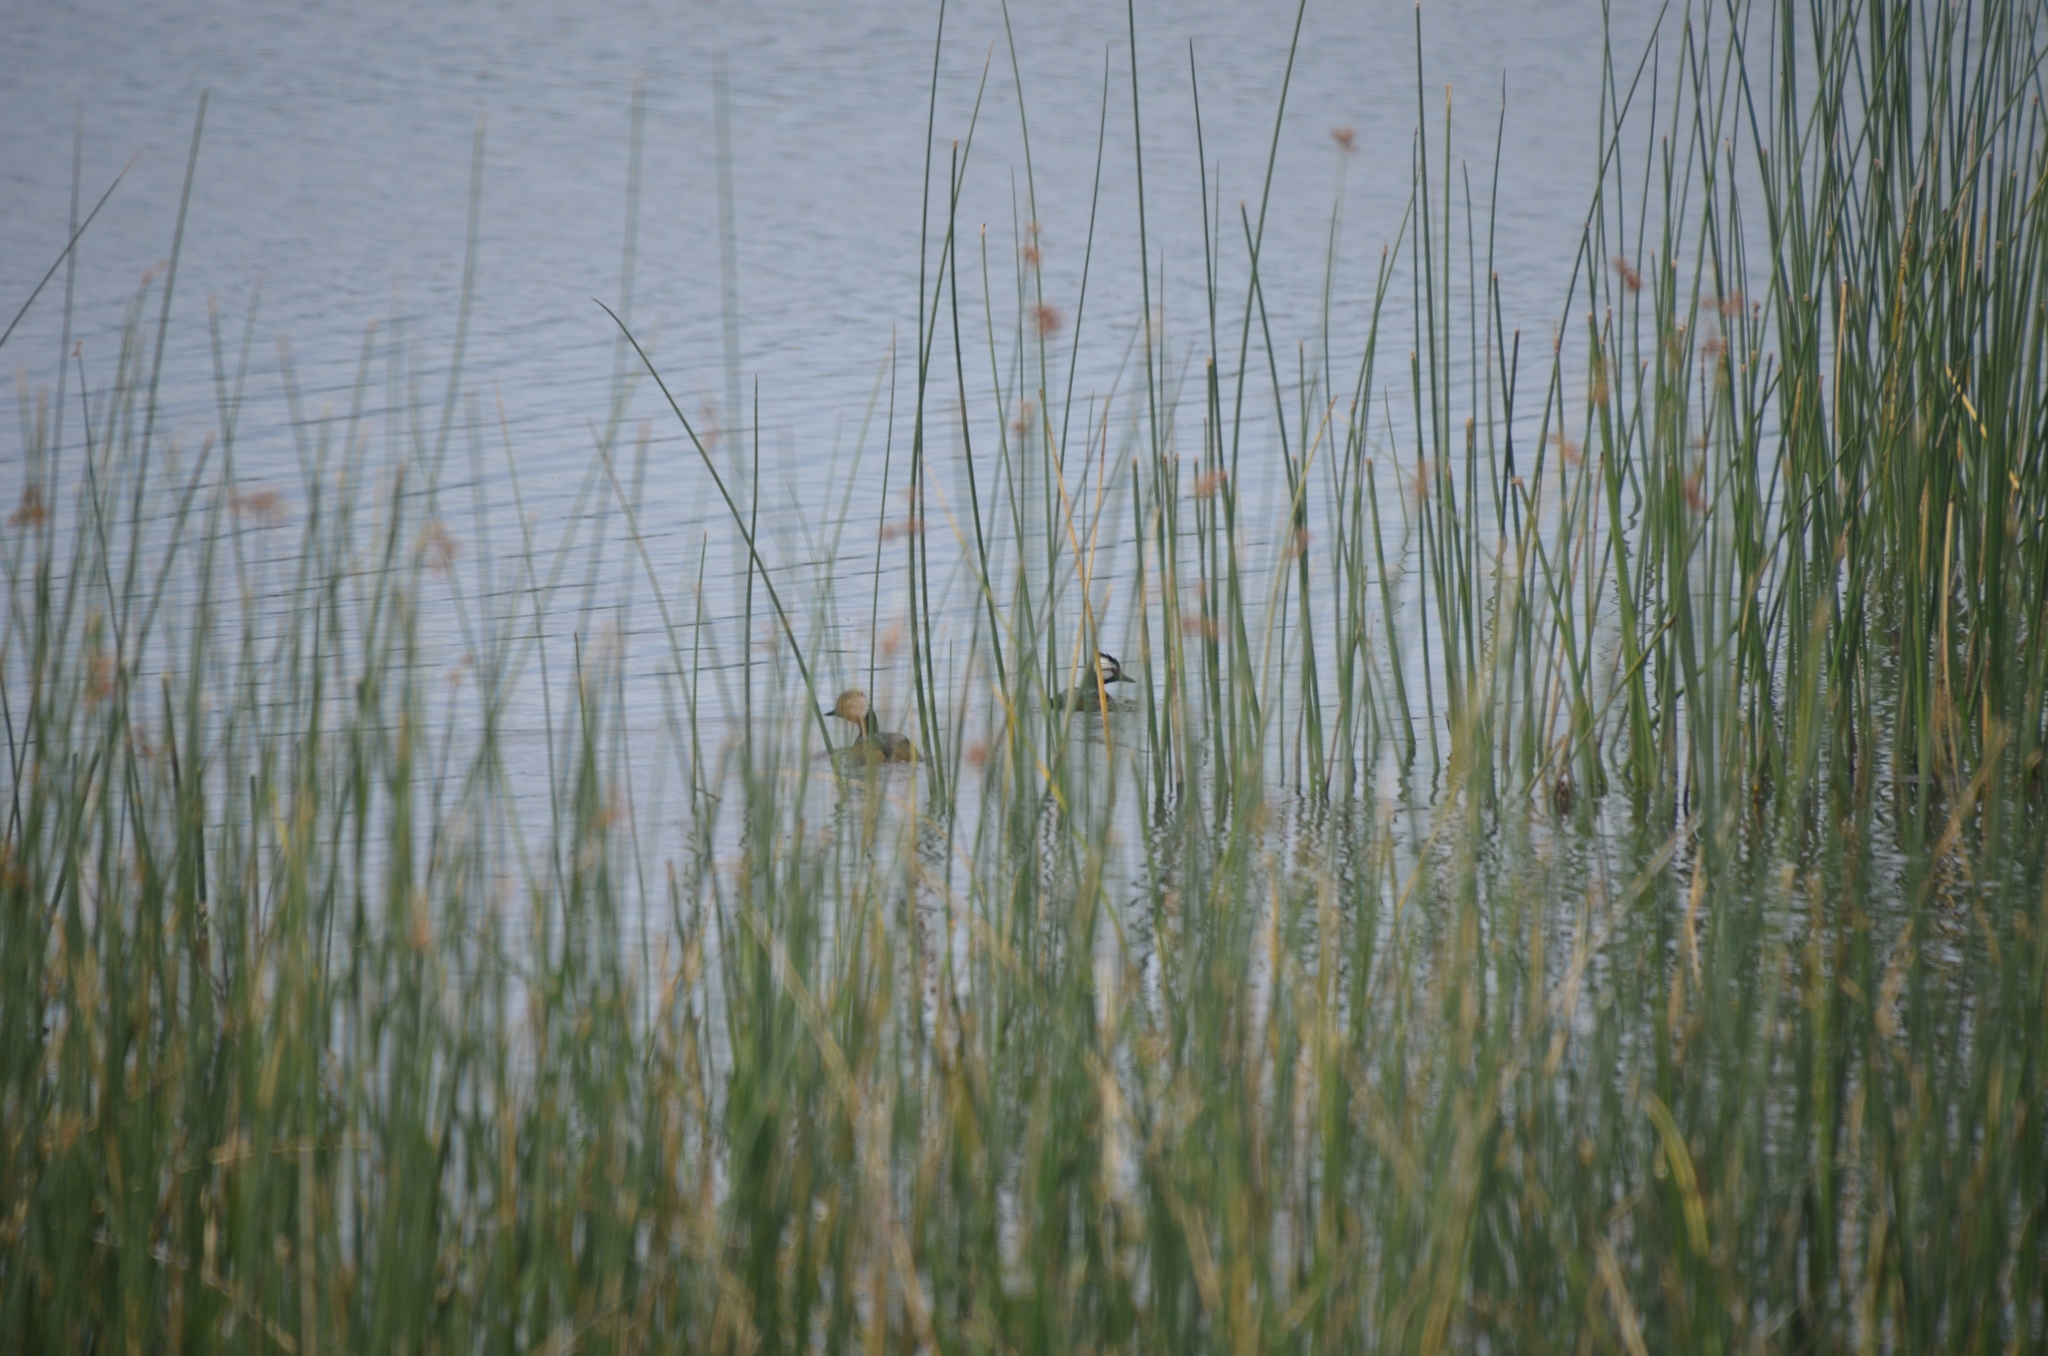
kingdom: Animalia
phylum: Chordata
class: Aves
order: Podicipediformes
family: Podicipedidae
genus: Rollandia
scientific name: Rollandia rolland
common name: White-tufted grebe
